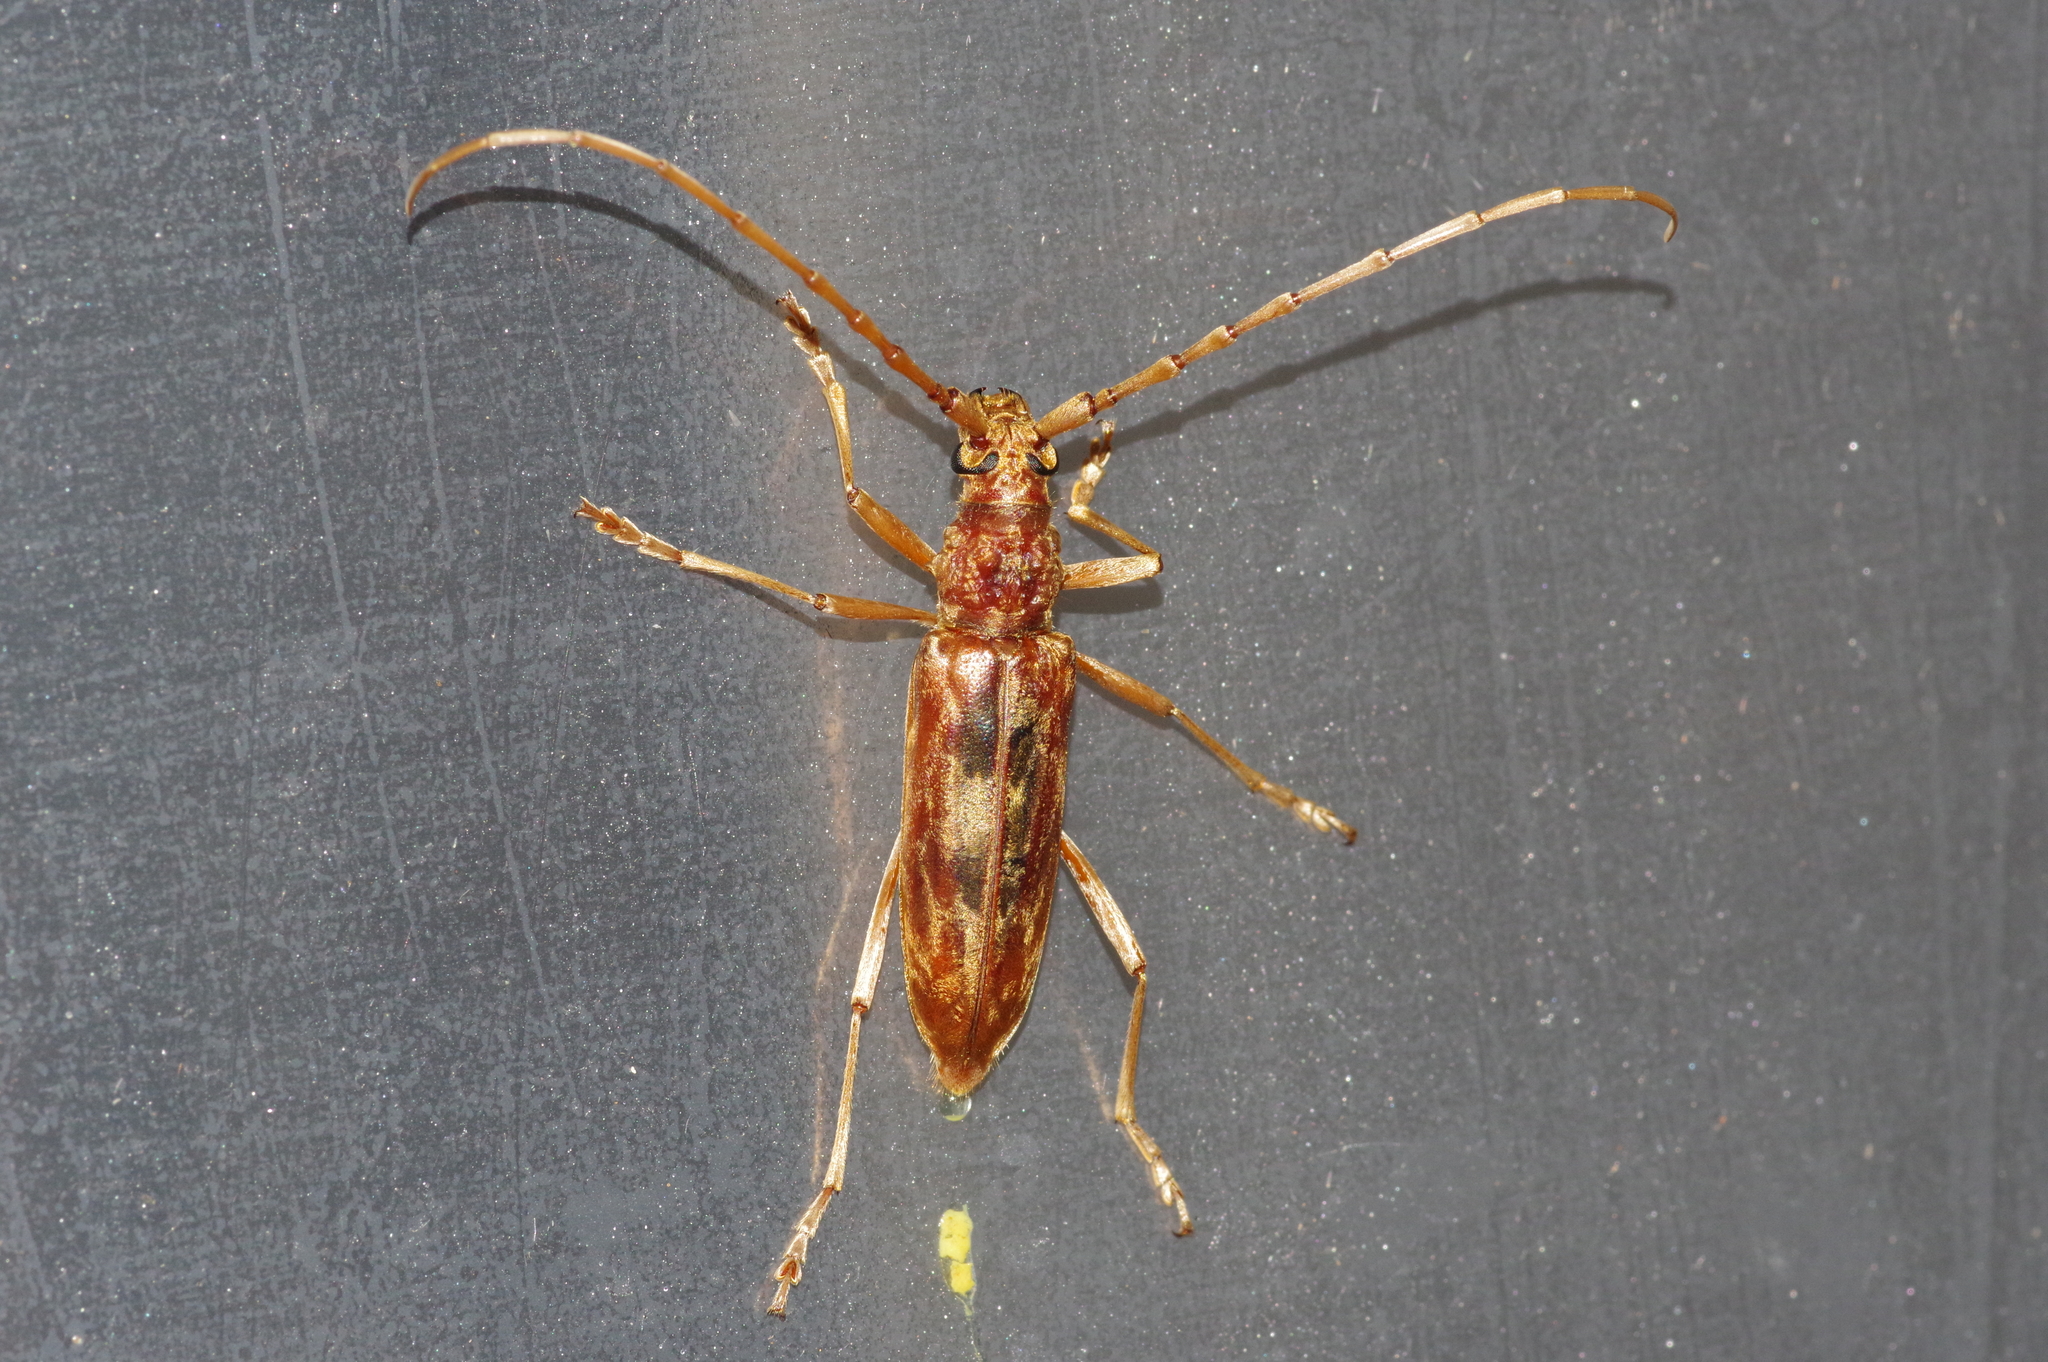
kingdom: Animalia
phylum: Arthropoda
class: Insecta
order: Coleoptera
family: Cerambycidae
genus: Aeolesthes
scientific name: Aeolesthes chrysothrix
